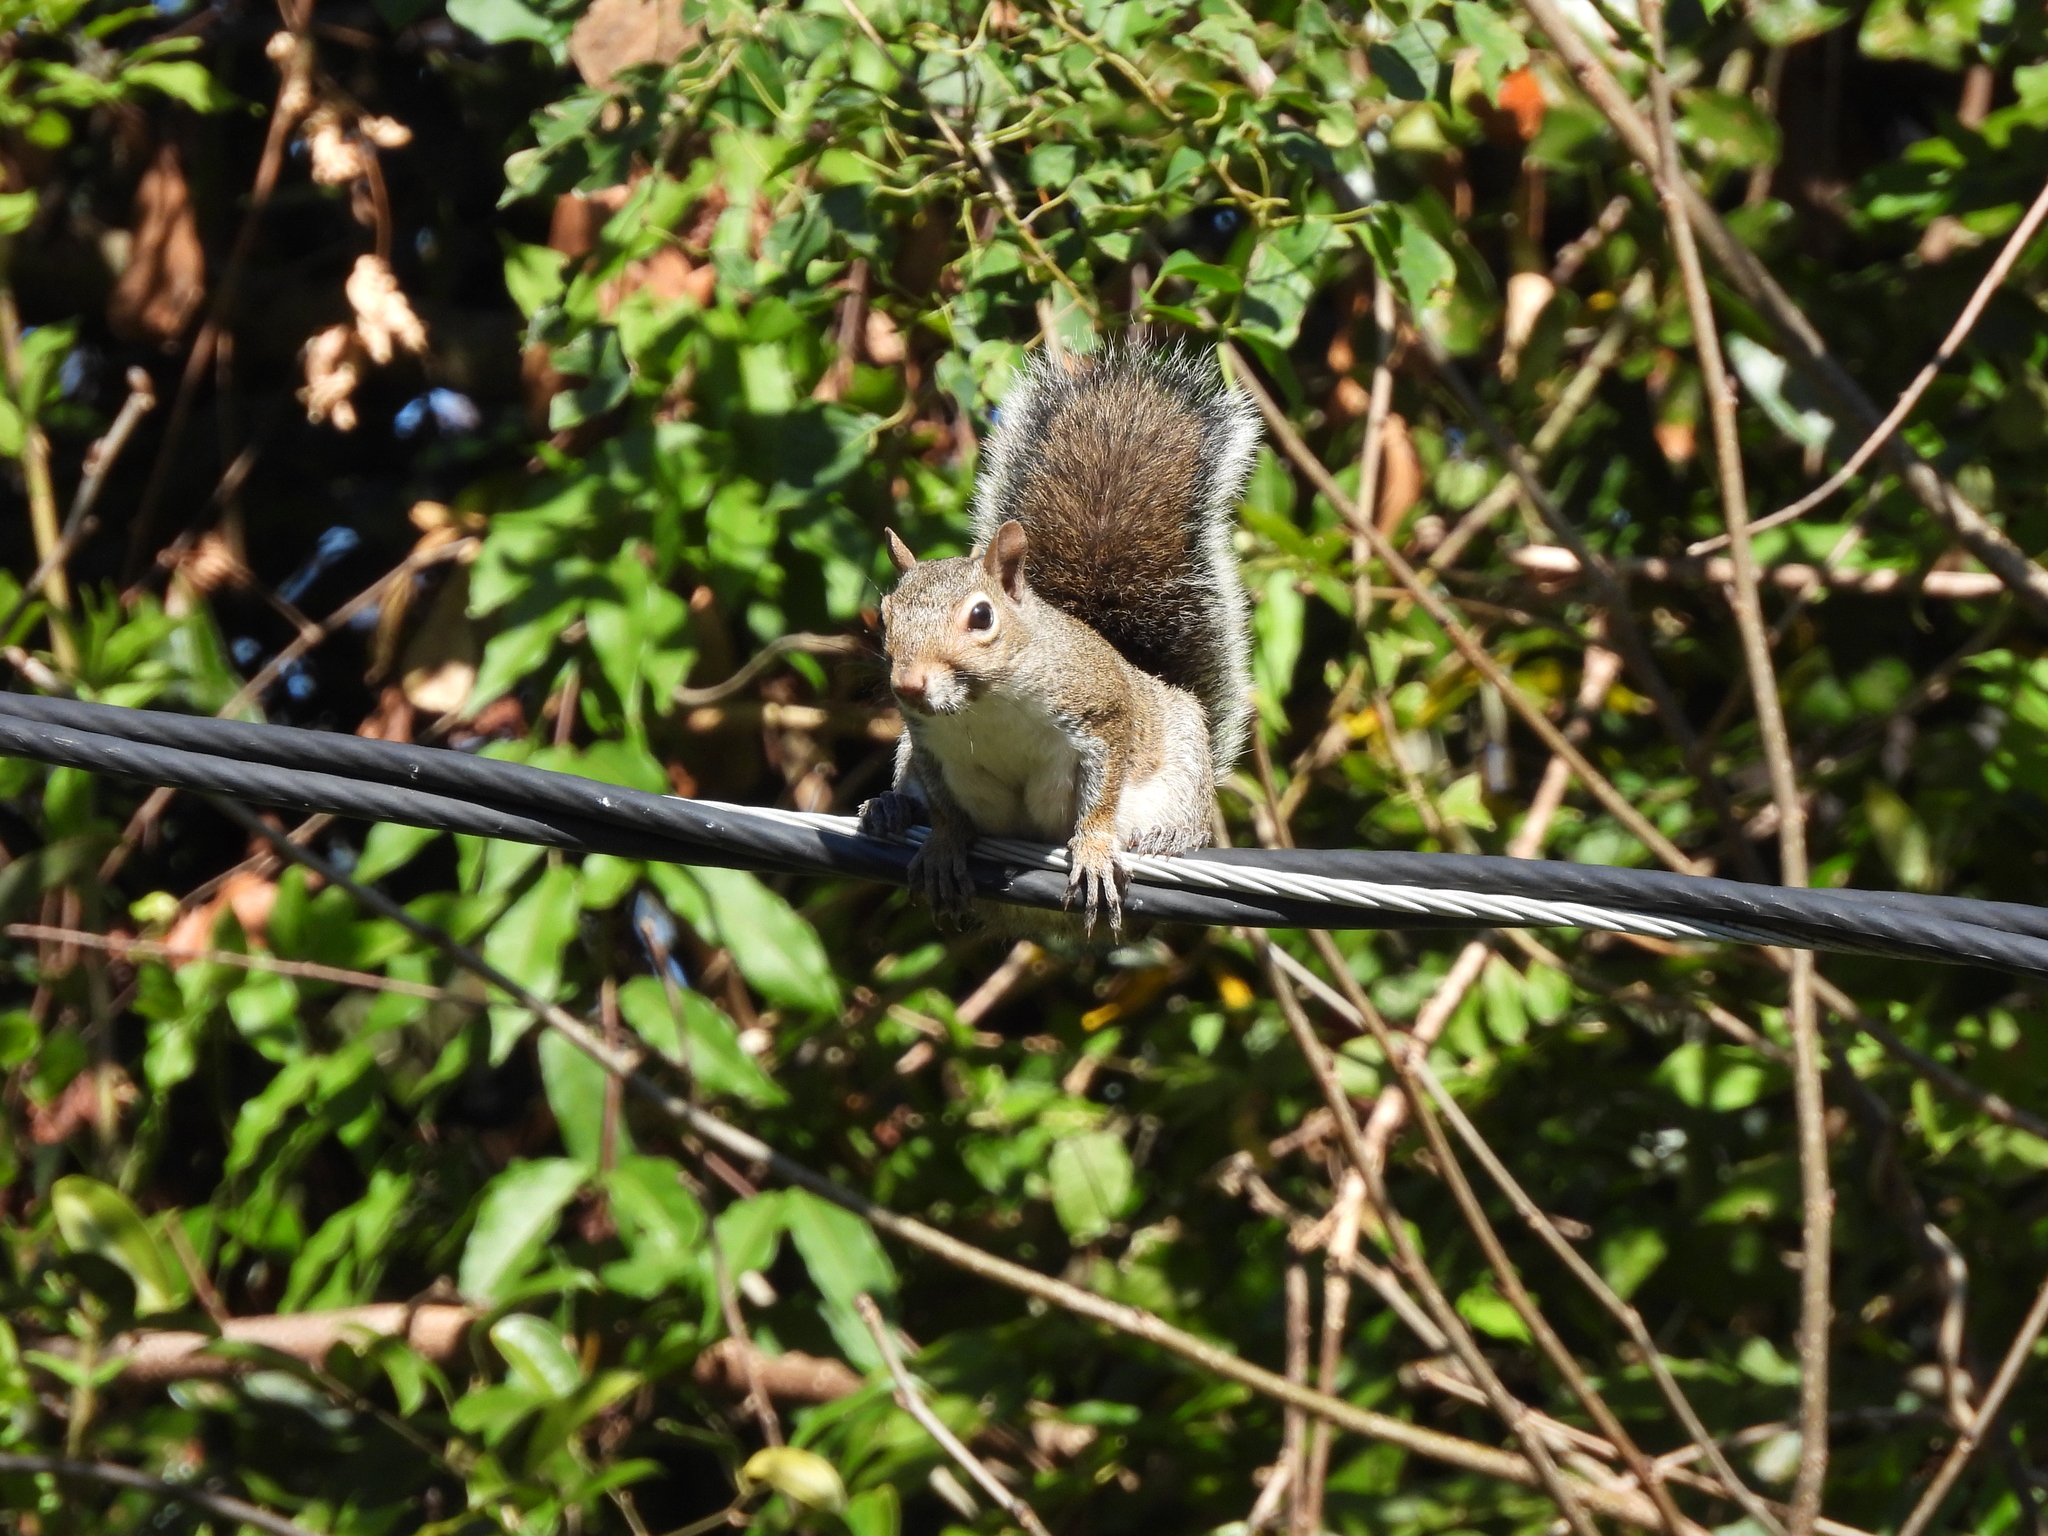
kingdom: Animalia
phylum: Chordata
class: Mammalia
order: Rodentia
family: Sciuridae
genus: Sciurus
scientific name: Sciurus carolinensis
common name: Eastern gray squirrel
